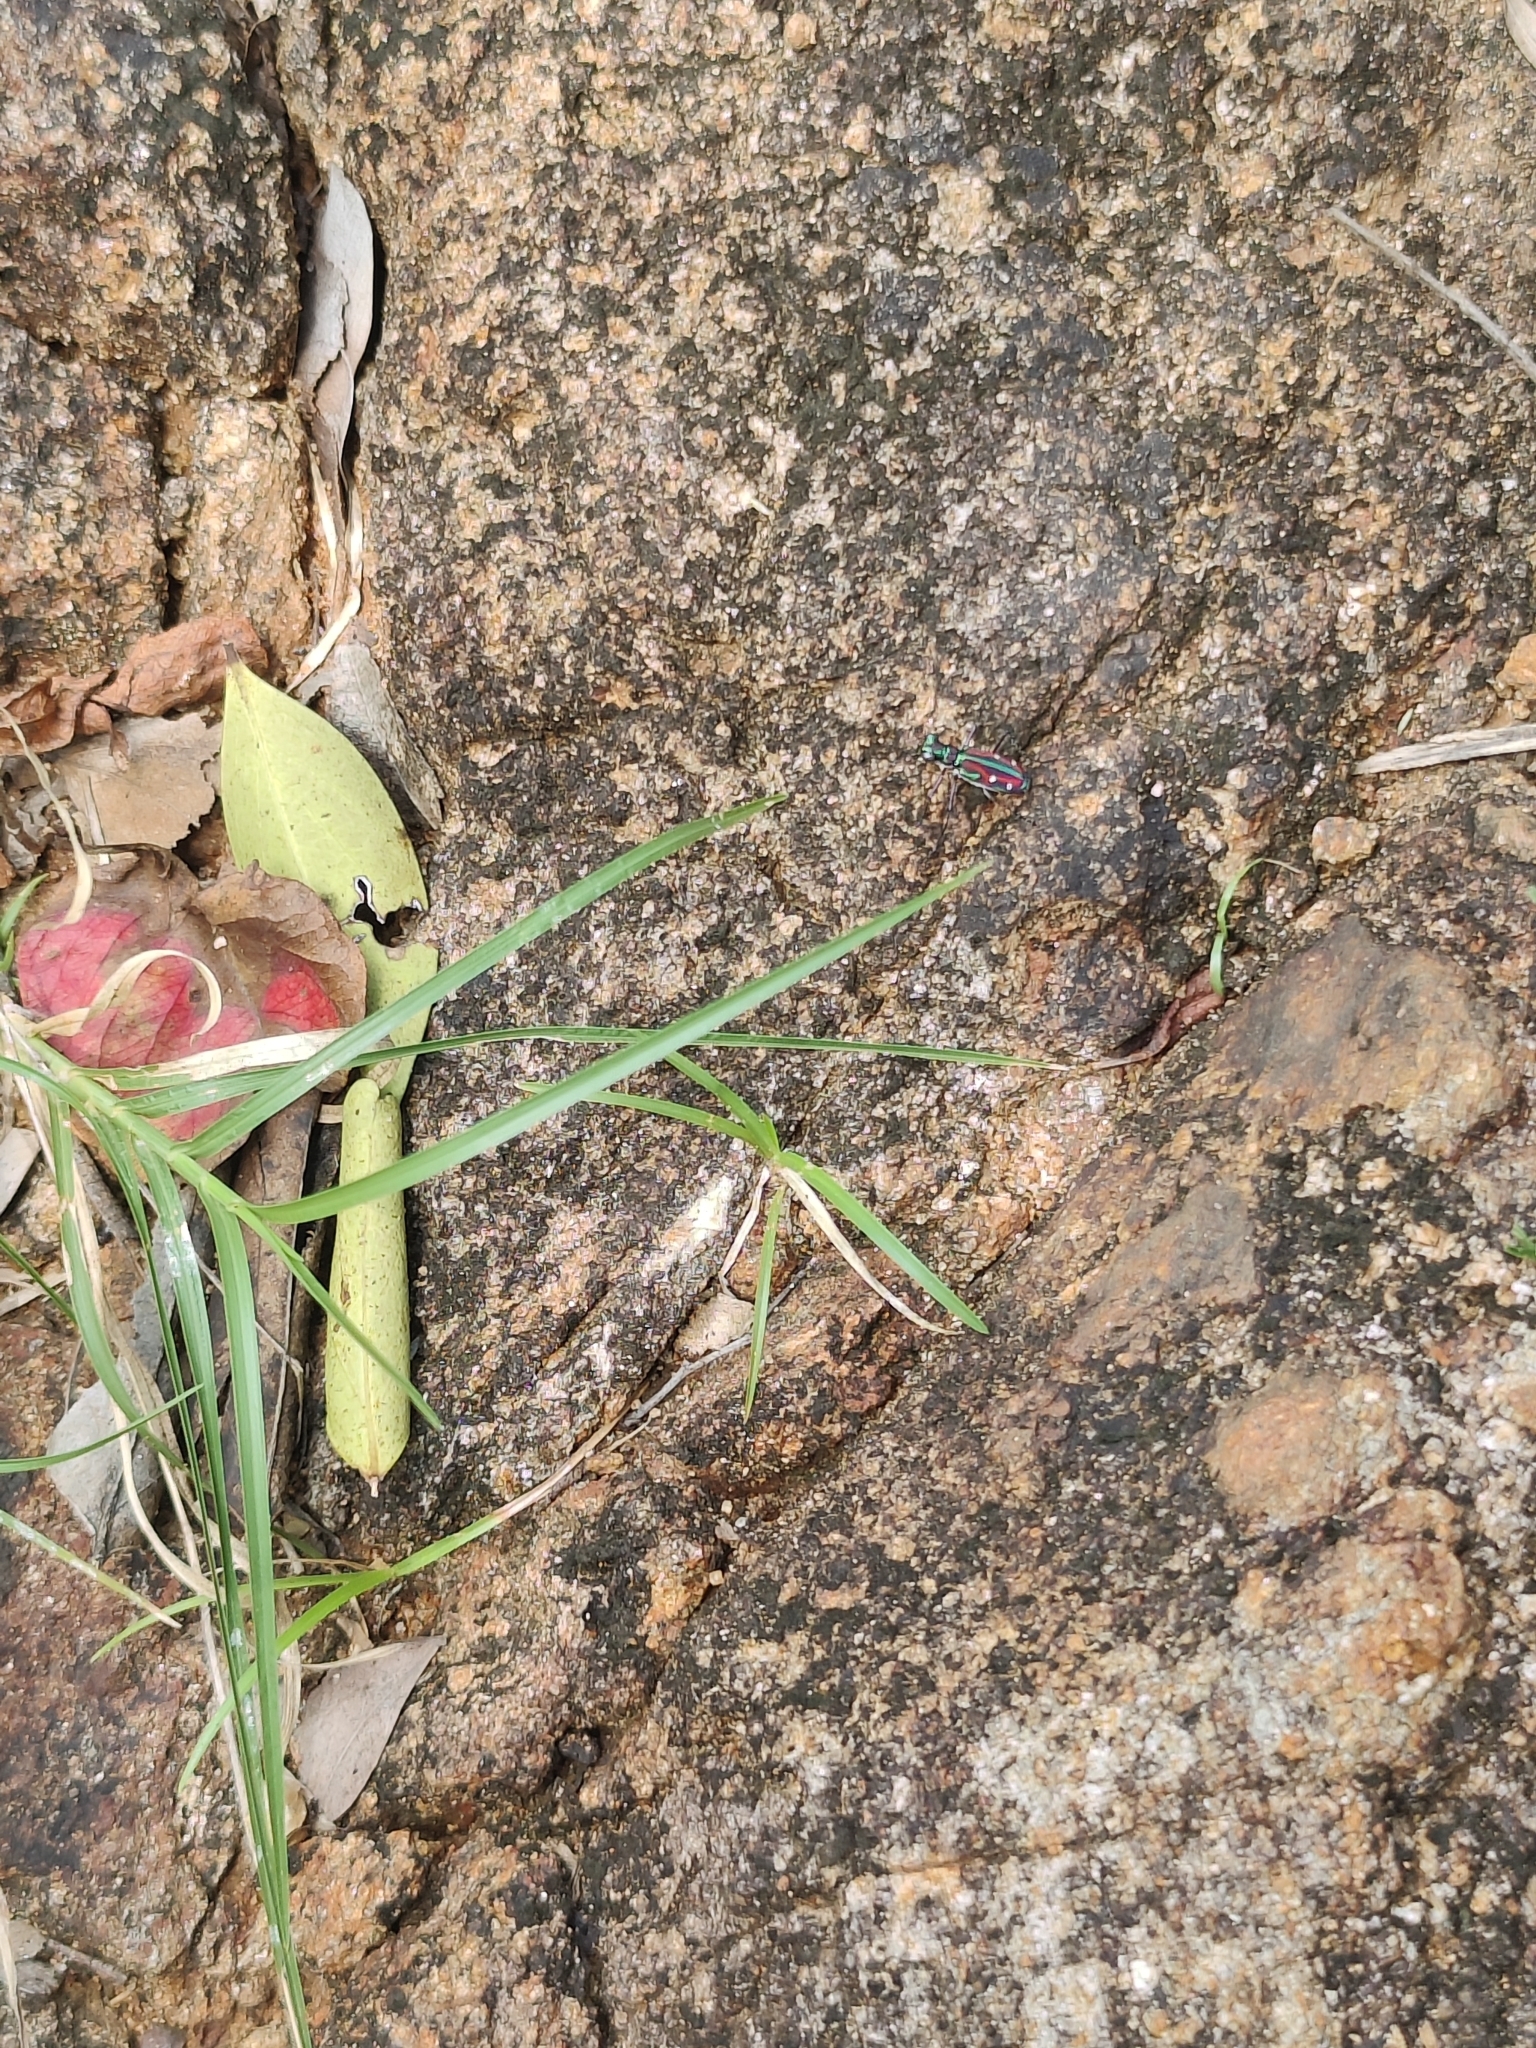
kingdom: Animalia
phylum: Arthropoda
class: Insecta
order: Coleoptera
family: Carabidae
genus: Jansenia
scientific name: Jansenia rugosiceps
